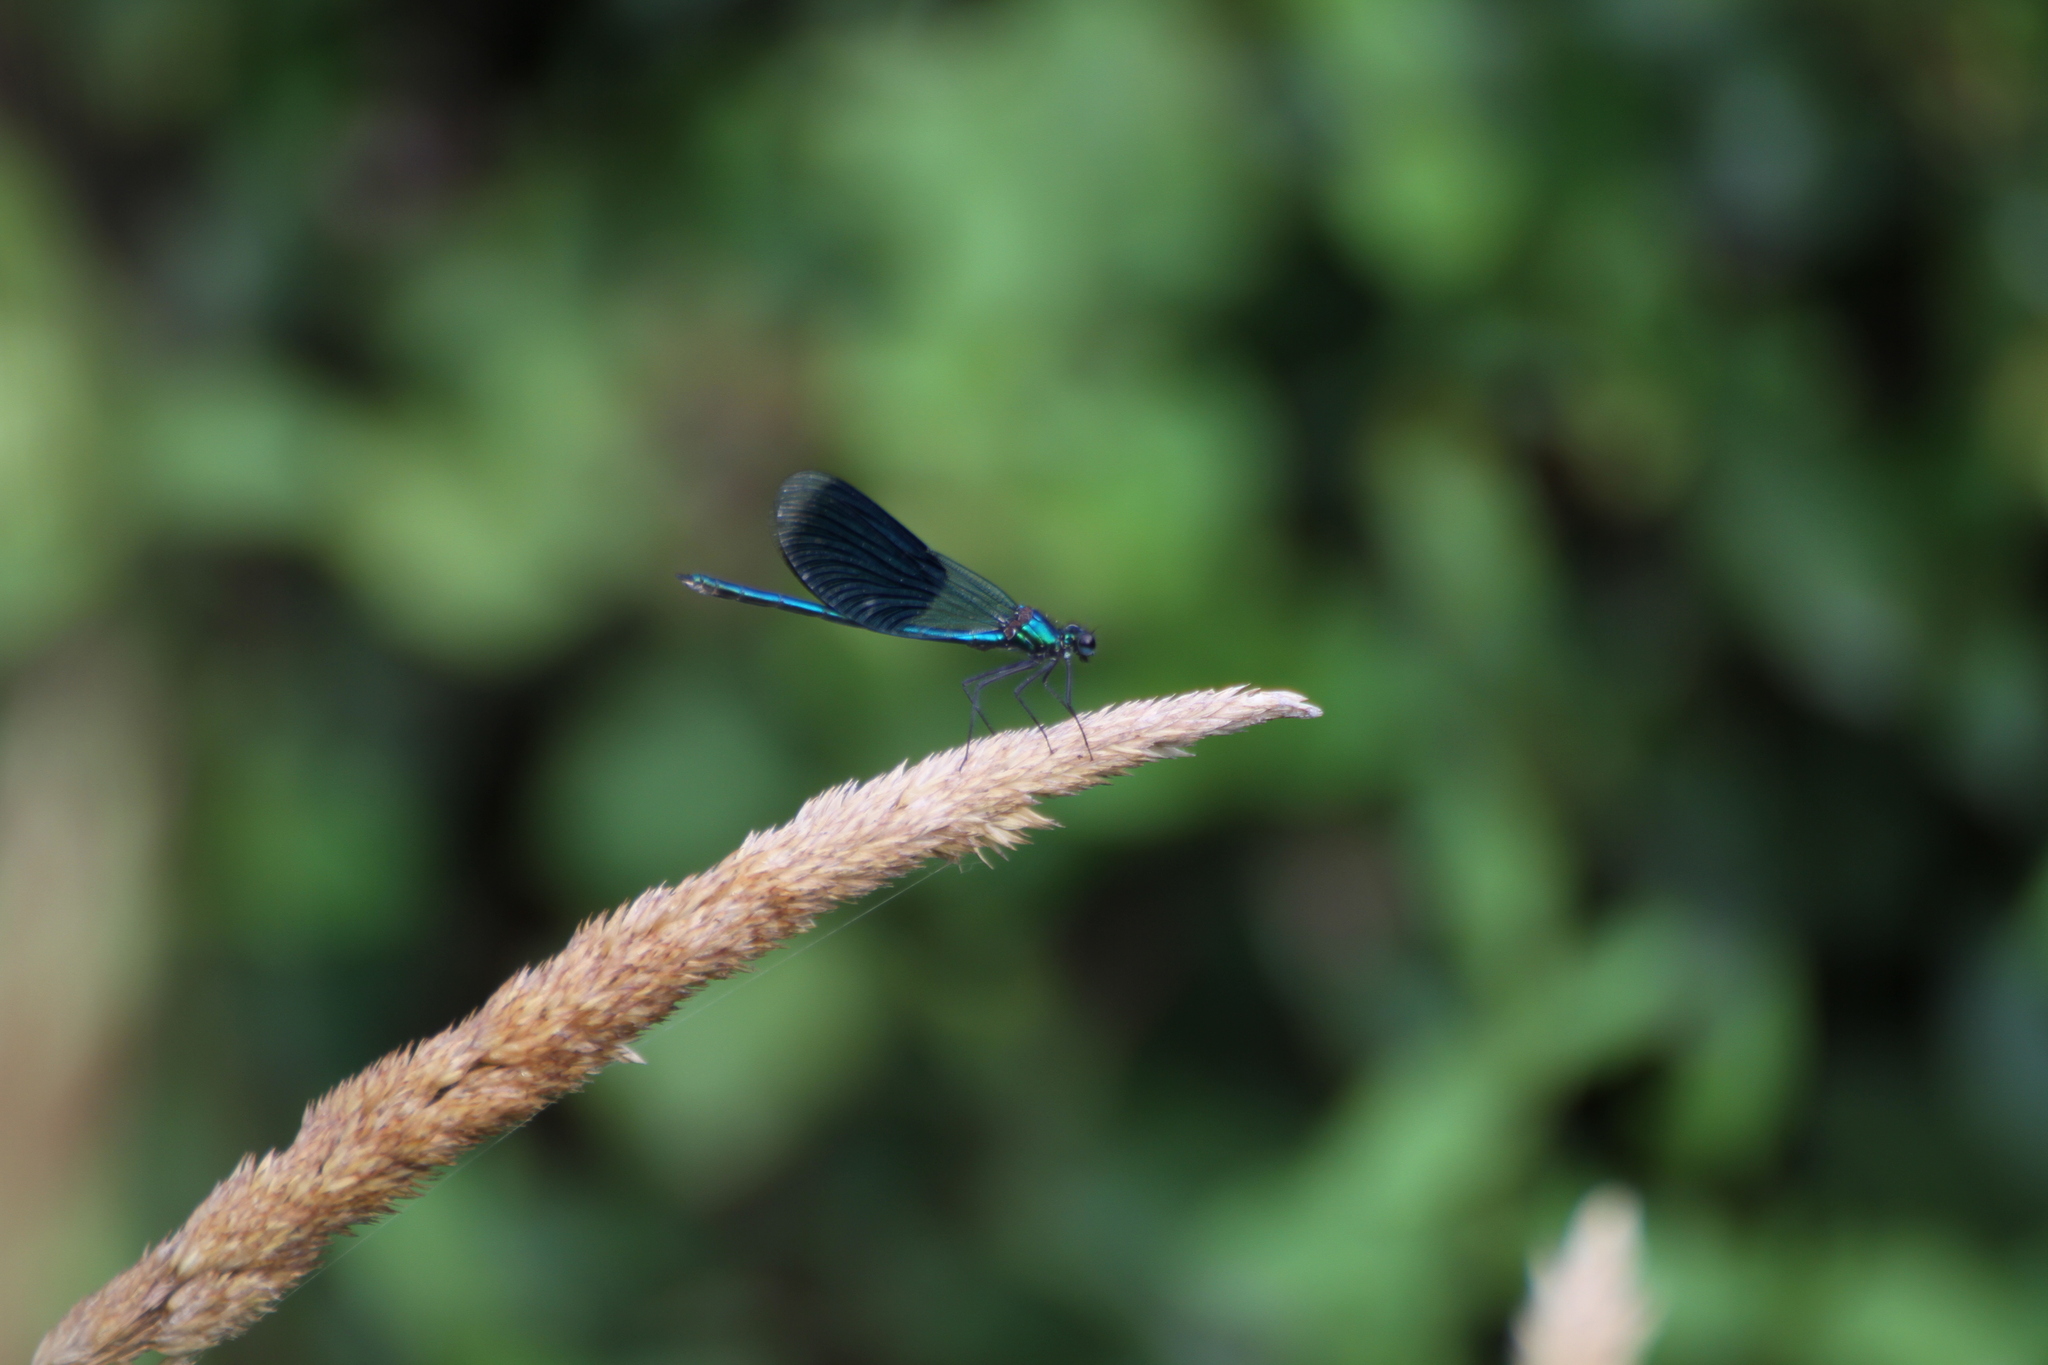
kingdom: Animalia
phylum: Arthropoda
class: Insecta
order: Odonata
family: Calopterygidae
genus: Calopteryx
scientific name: Calopteryx splendens
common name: Banded demoiselle
